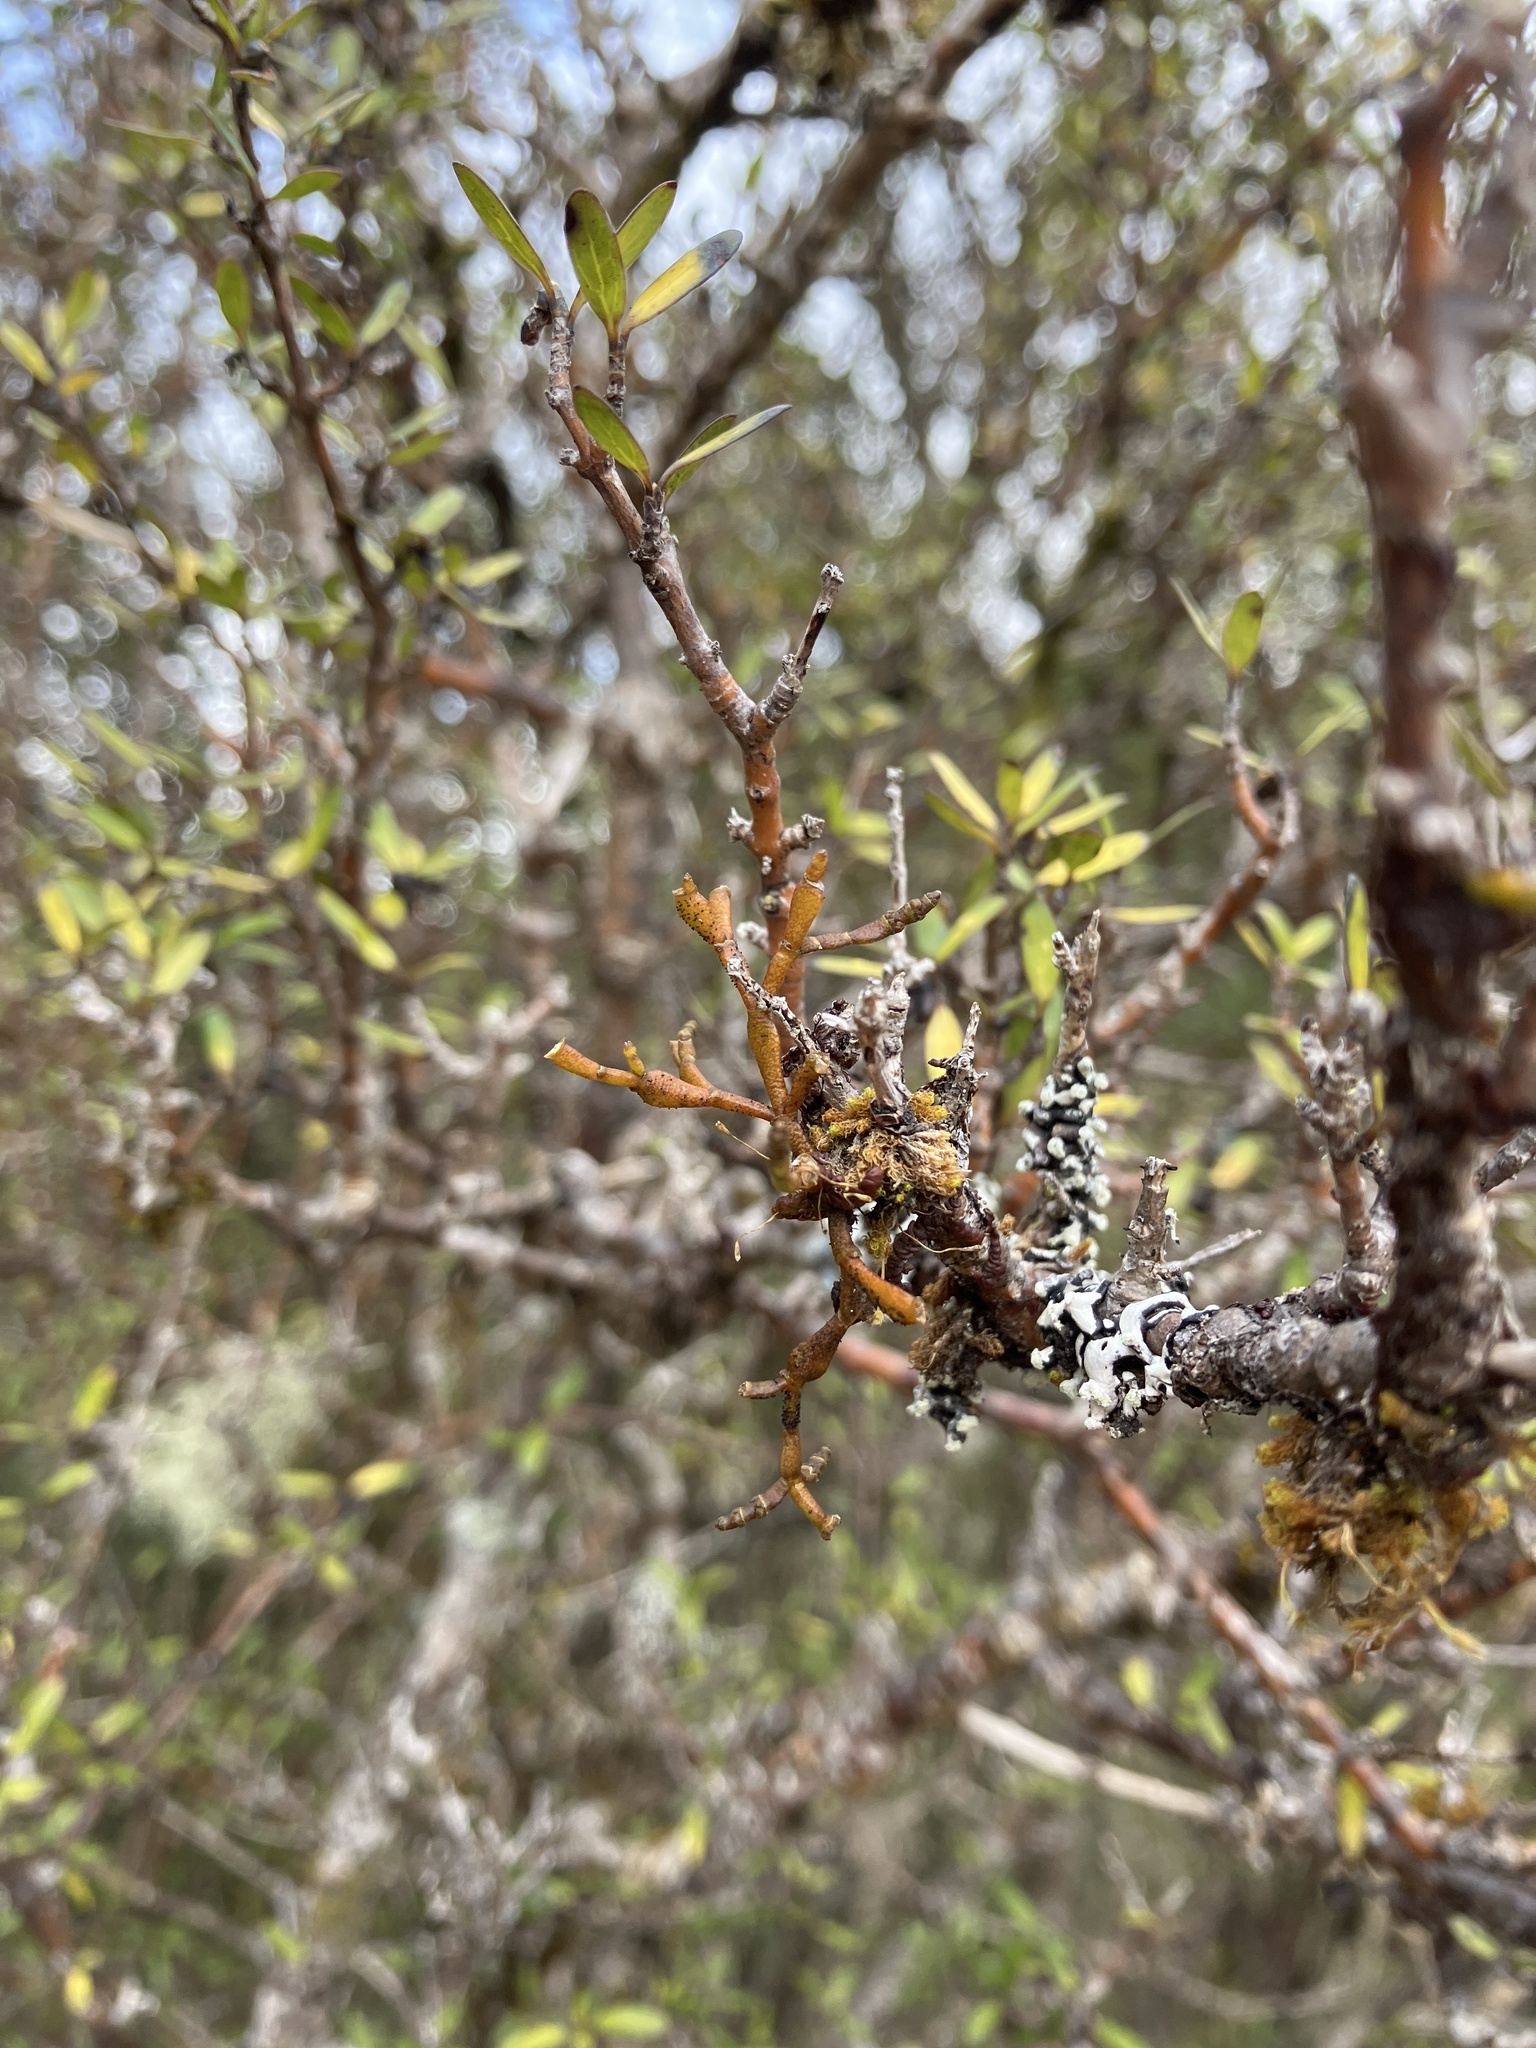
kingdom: Plantae
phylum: Tracheophyta
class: Magnoliopsida
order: Santalales
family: Viscaceae
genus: Korthalsella
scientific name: Korthalsella clavata
